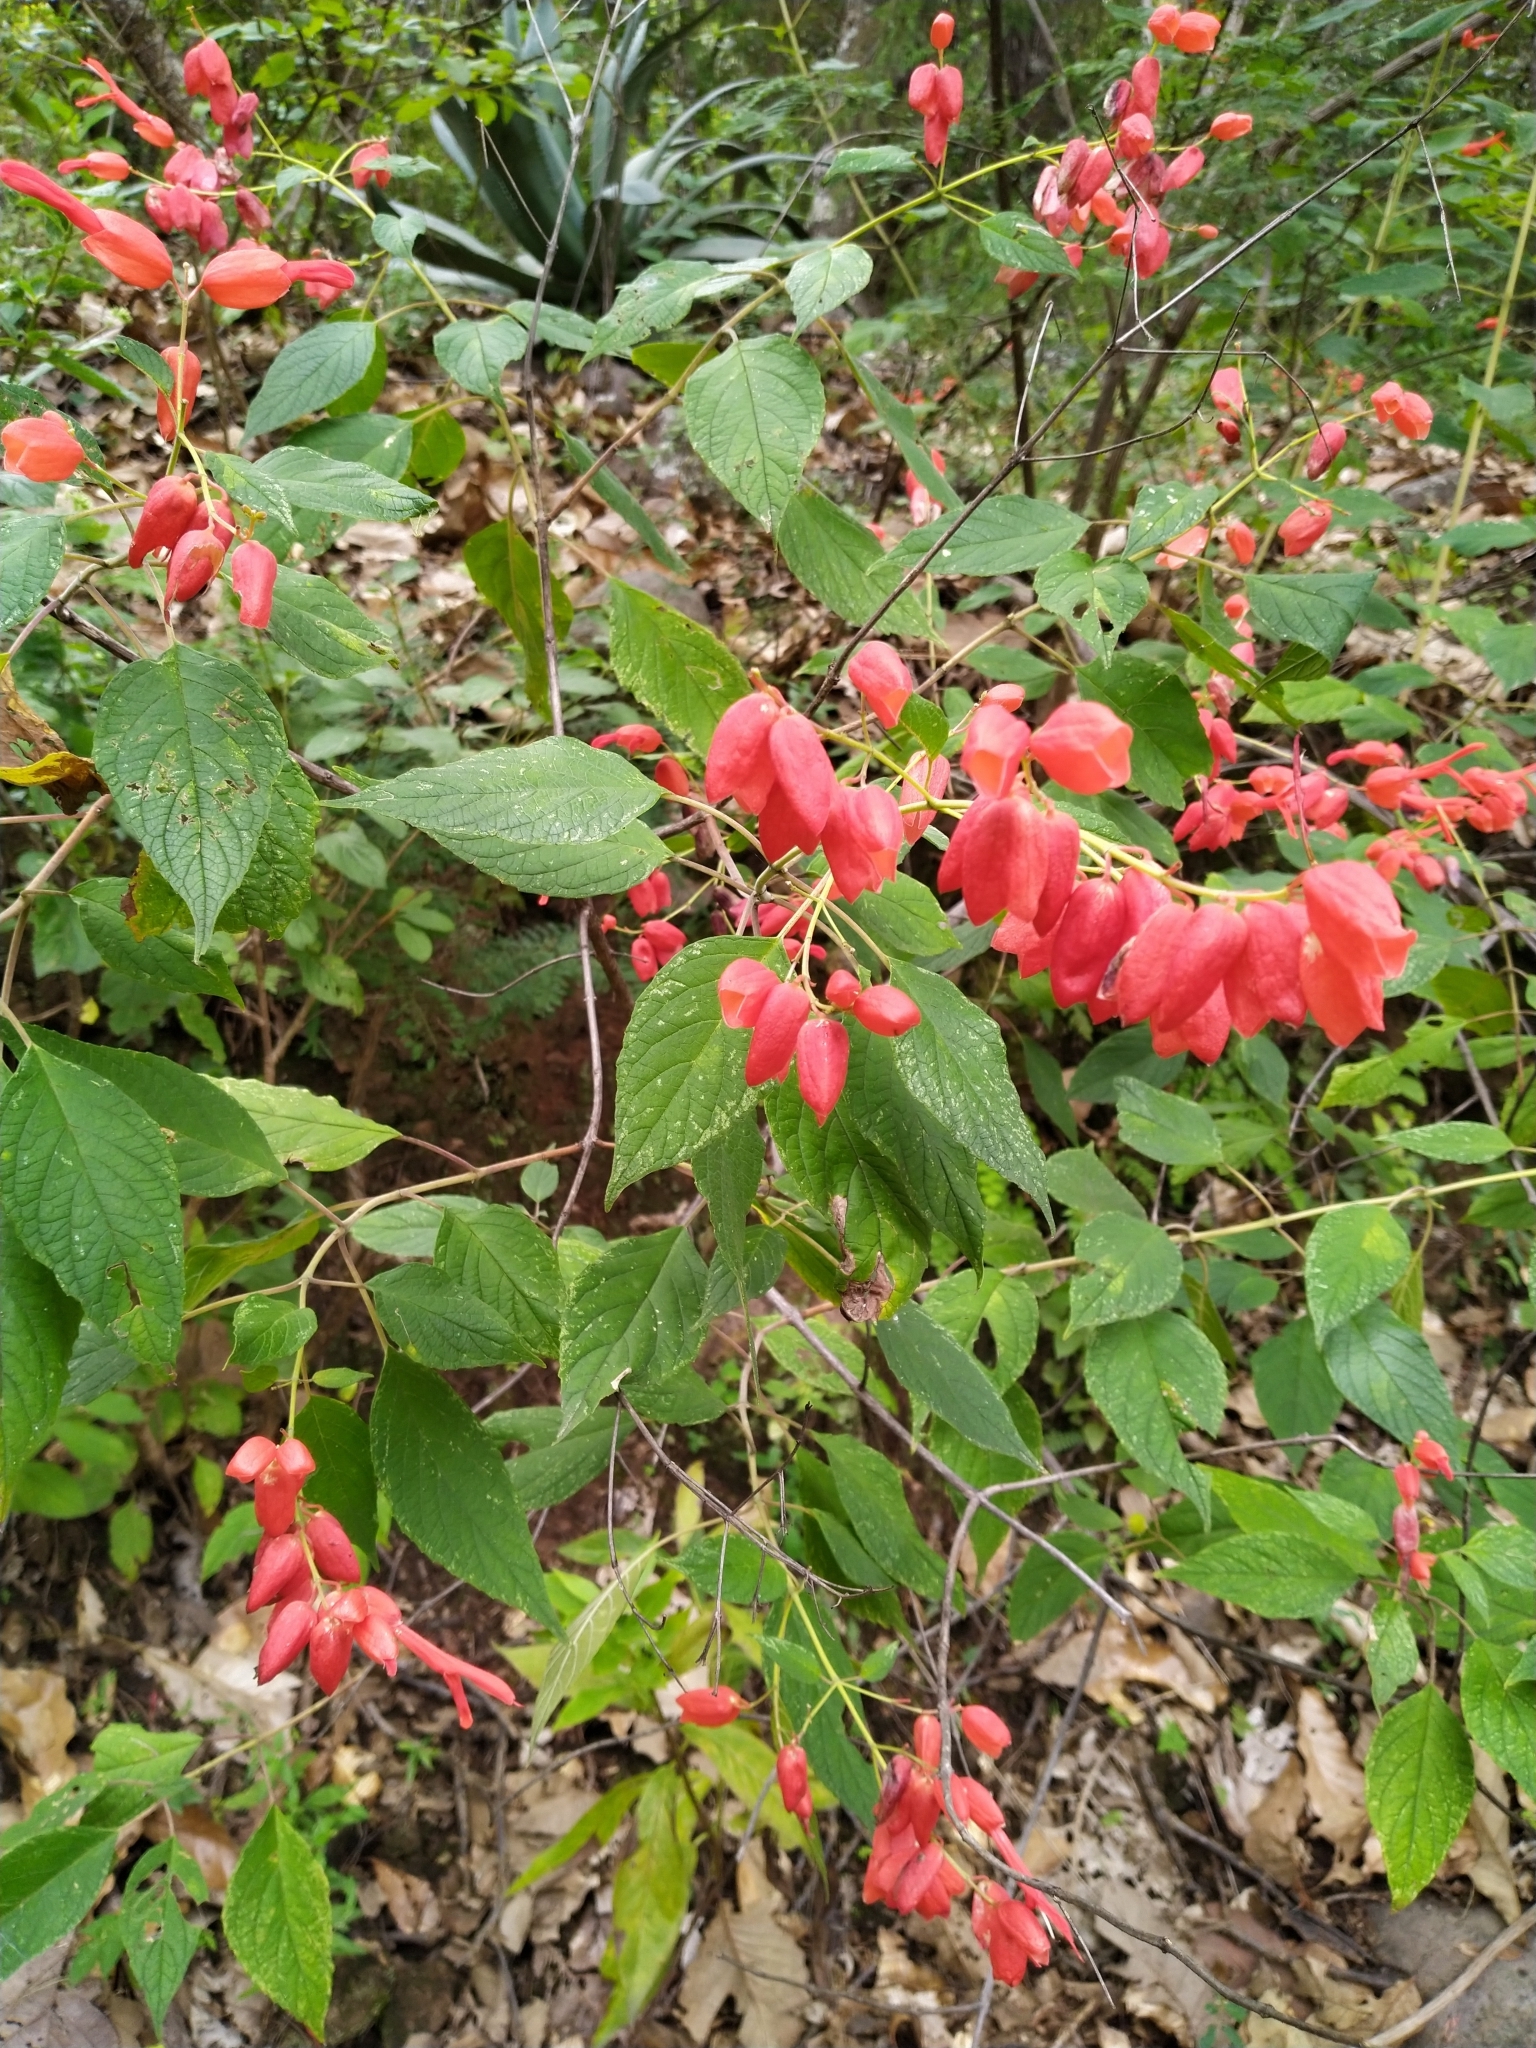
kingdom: Plantae
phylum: Tracheophyta
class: Magnoliopsida
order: Lamiales
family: Lamiaceae
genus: Salvia
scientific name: Salvia sessei
